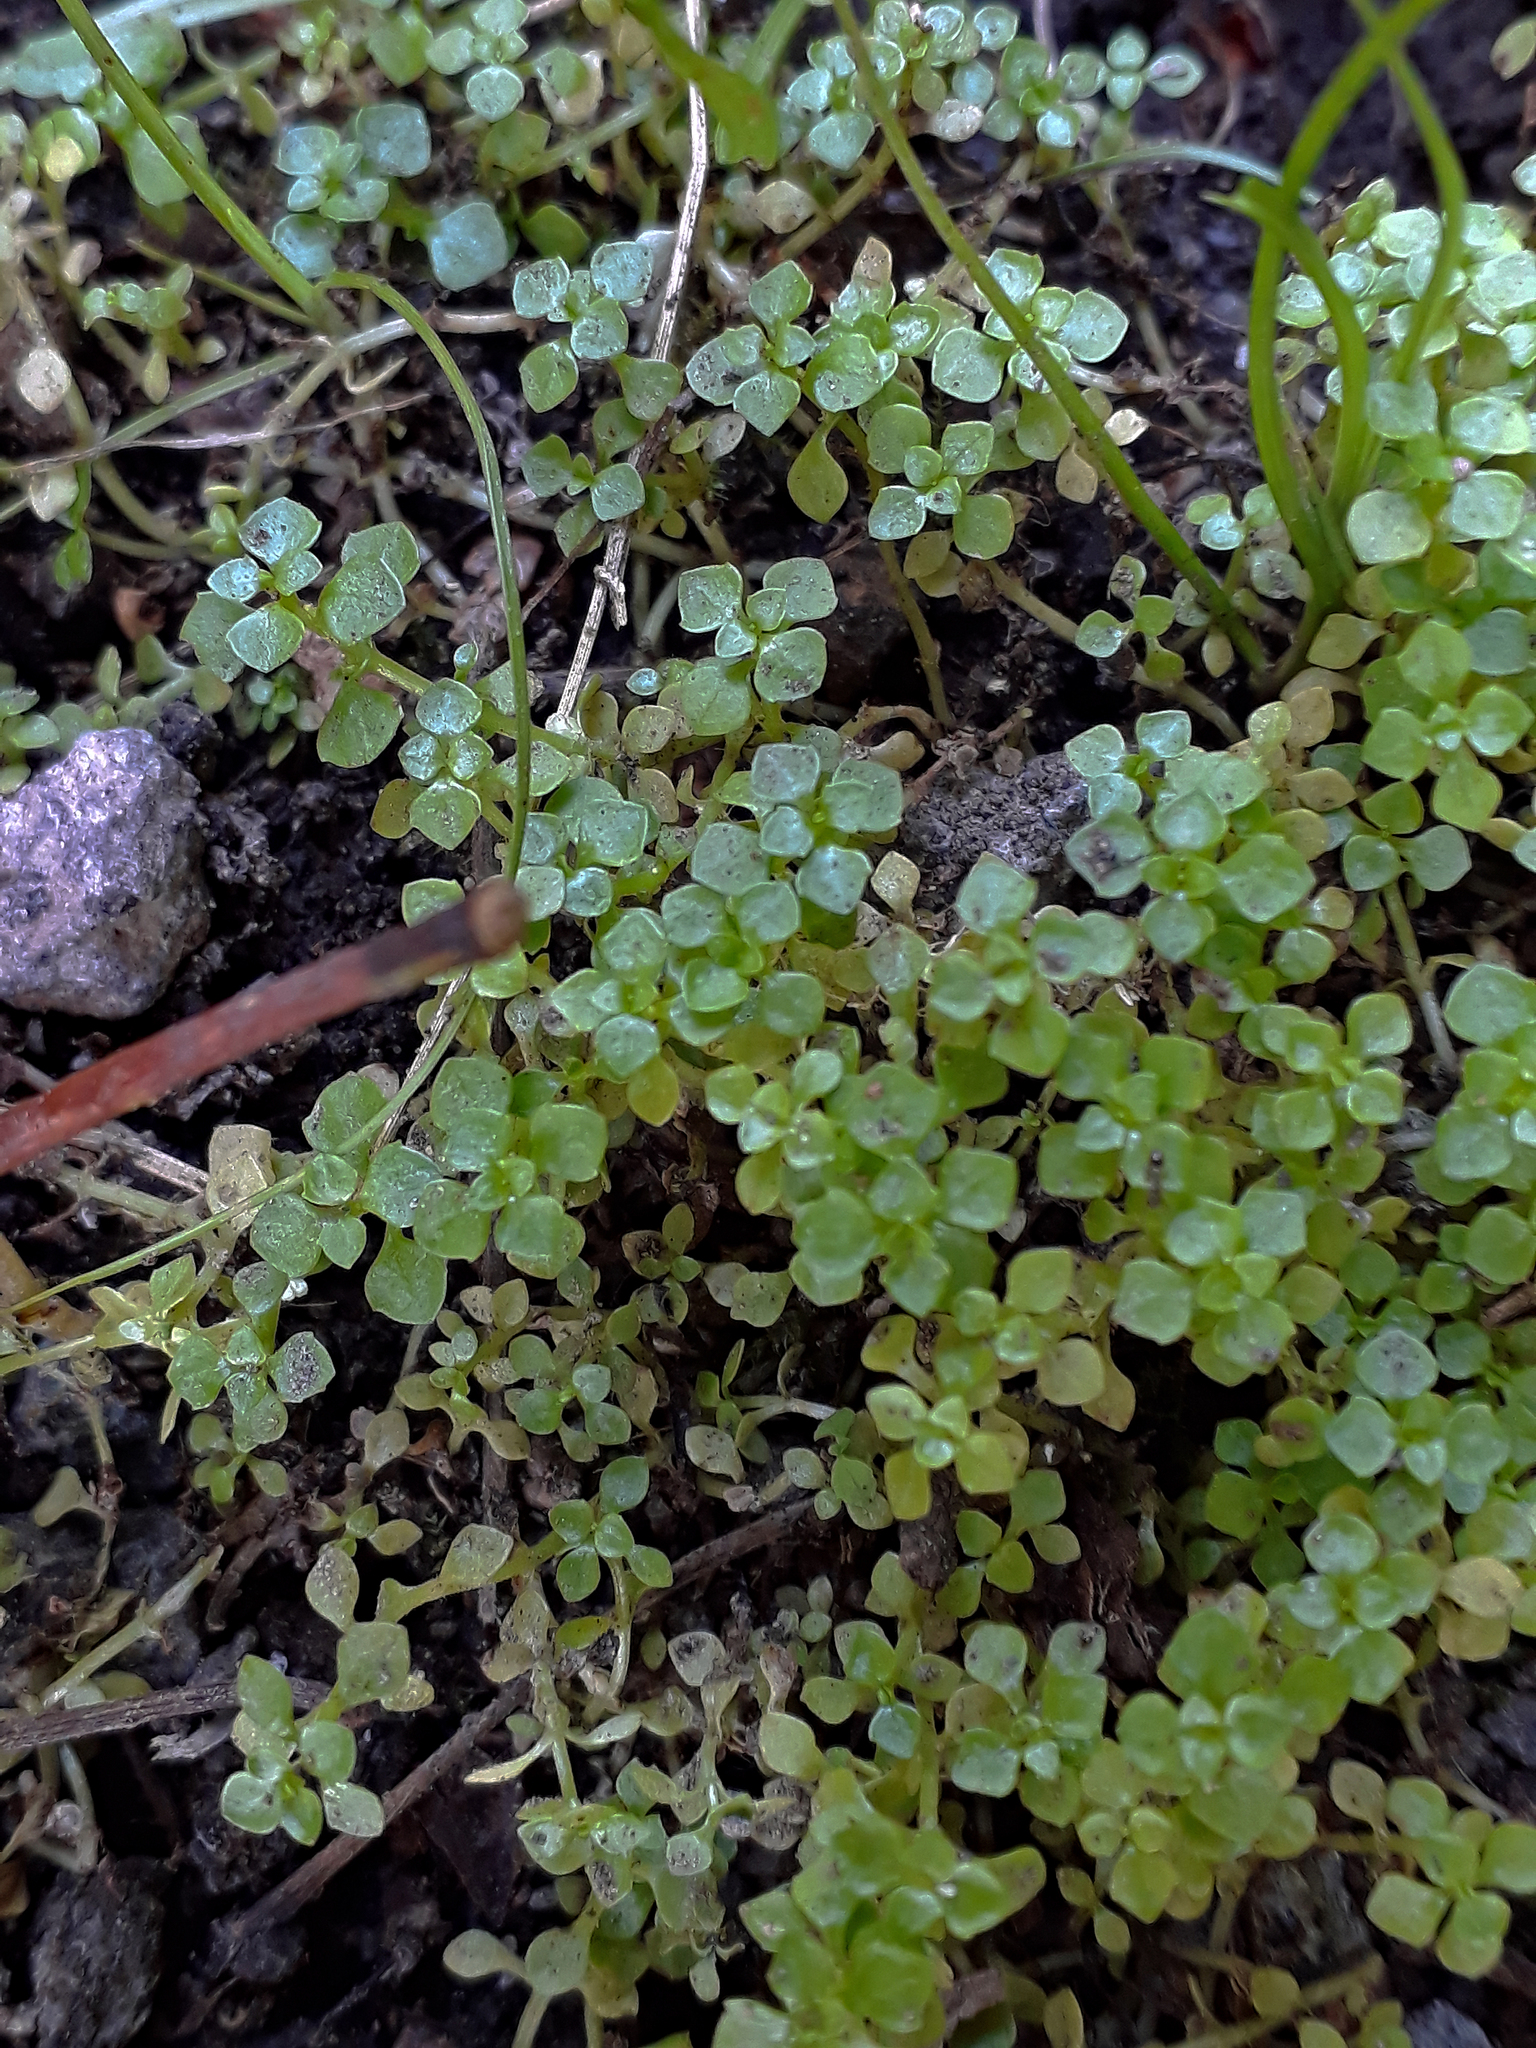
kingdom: Plantae
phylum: Tracheophyta
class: Magnoliopsida
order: Lamiales
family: Plantaginaceae
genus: Callitriche
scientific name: Callitriche muelleri
